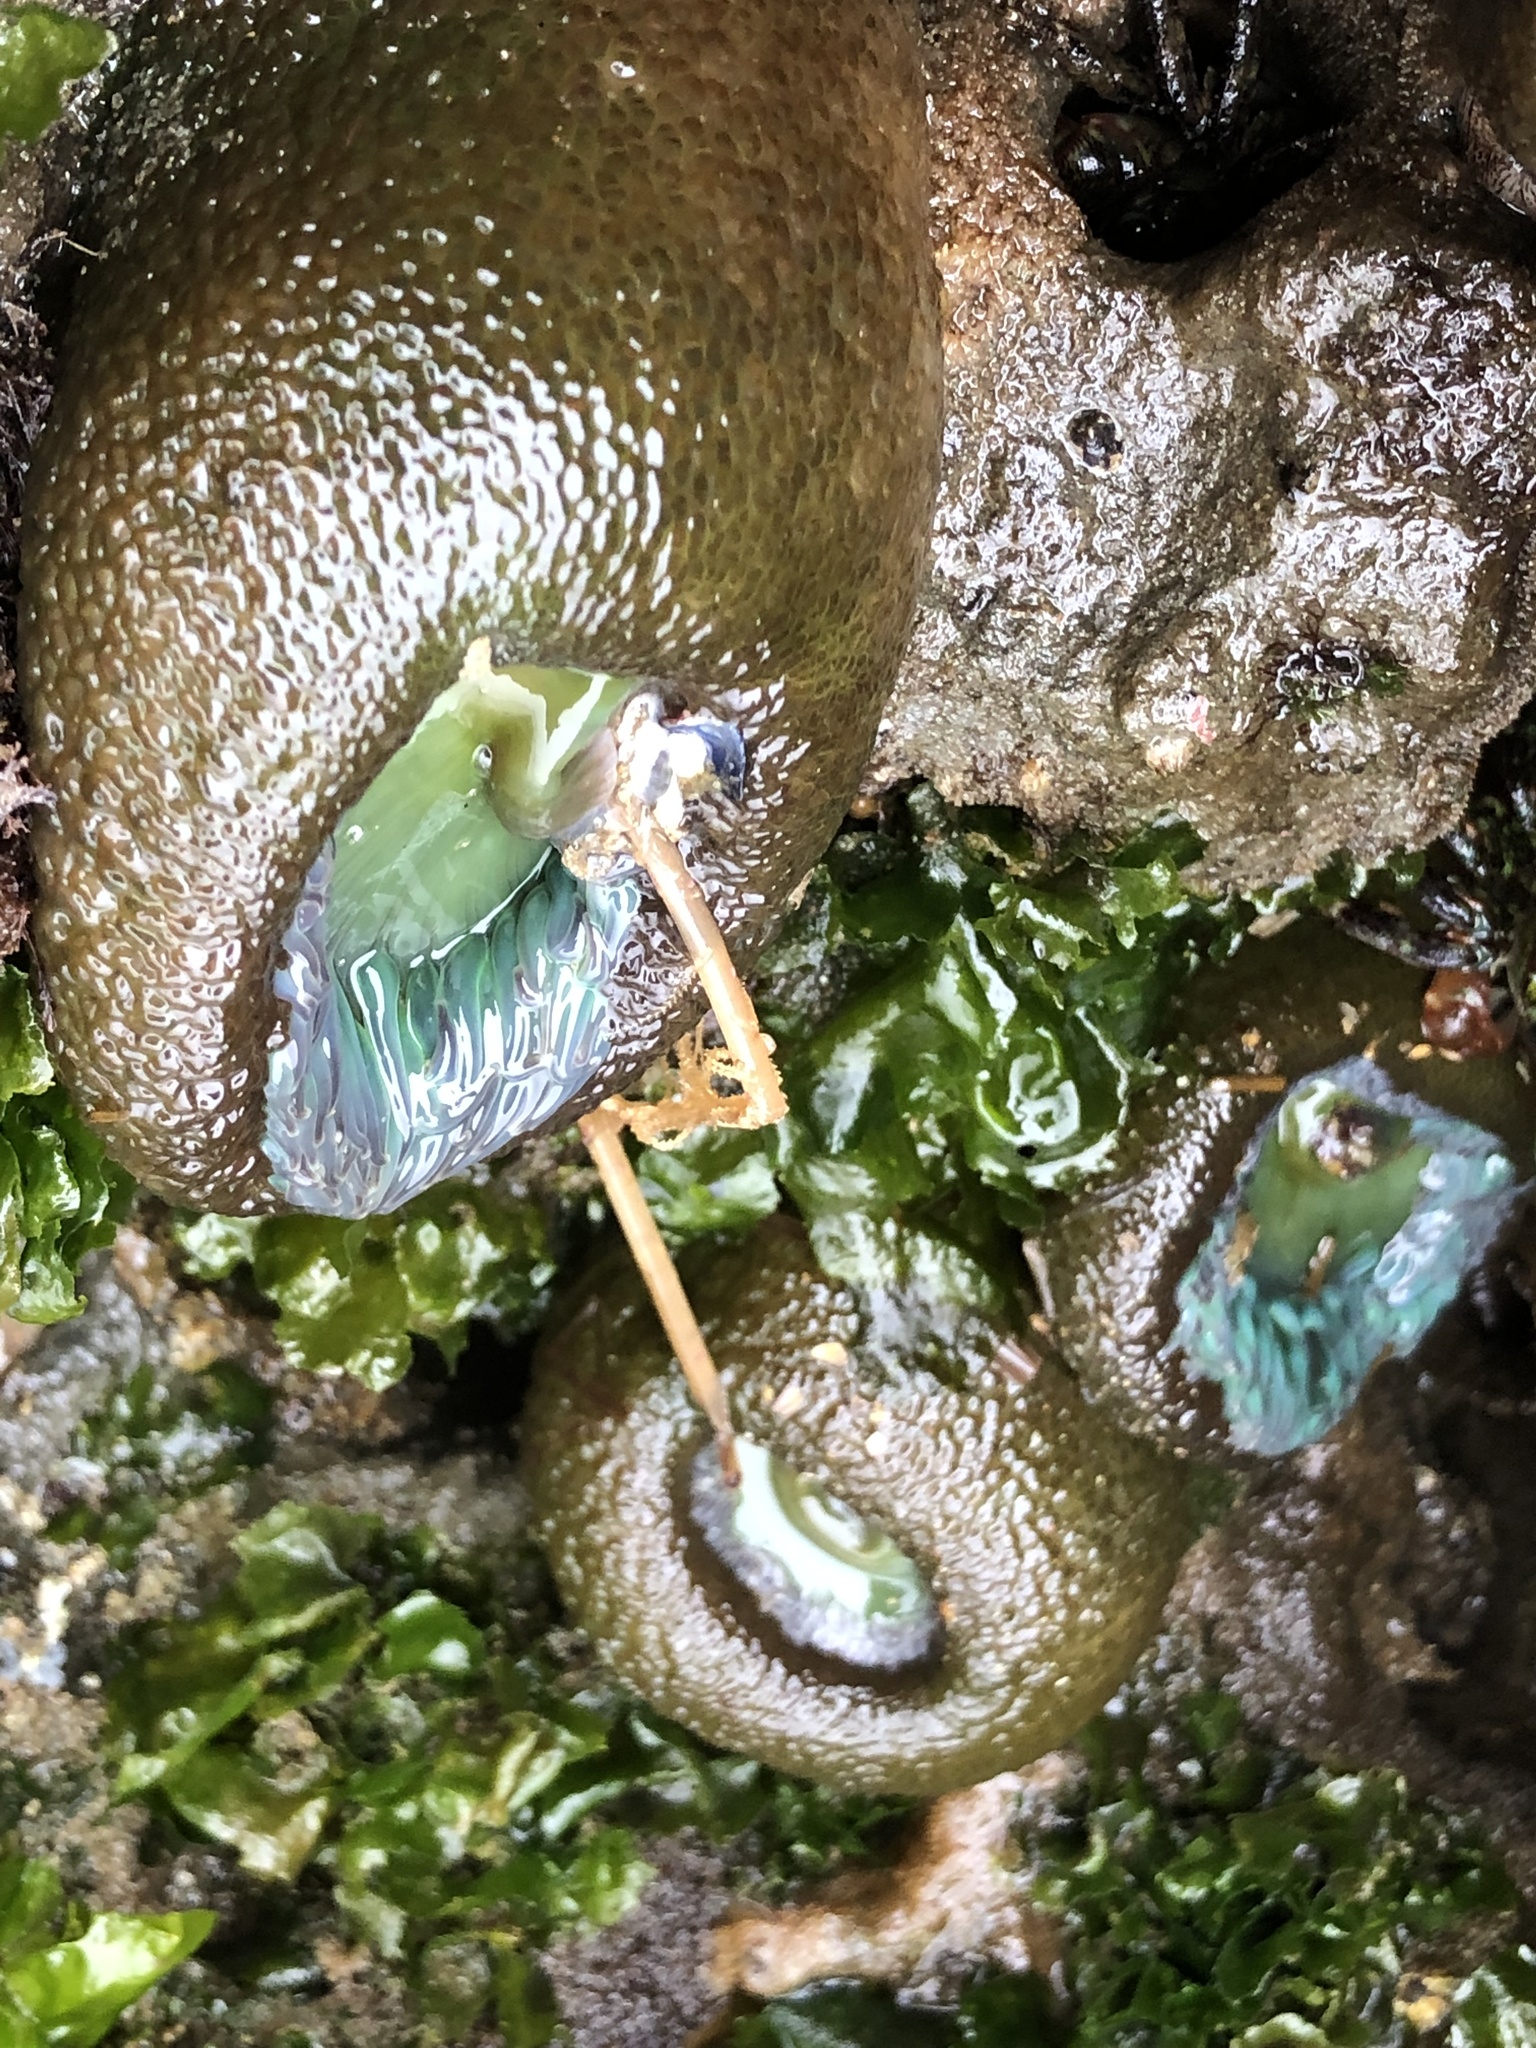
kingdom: Animalia
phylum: Cnidaria
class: Anthozoa
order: Actiniaria
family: Actiniidae
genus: Anthopleura
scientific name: Anthopleura xanthogrammica
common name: Giant green anemone
